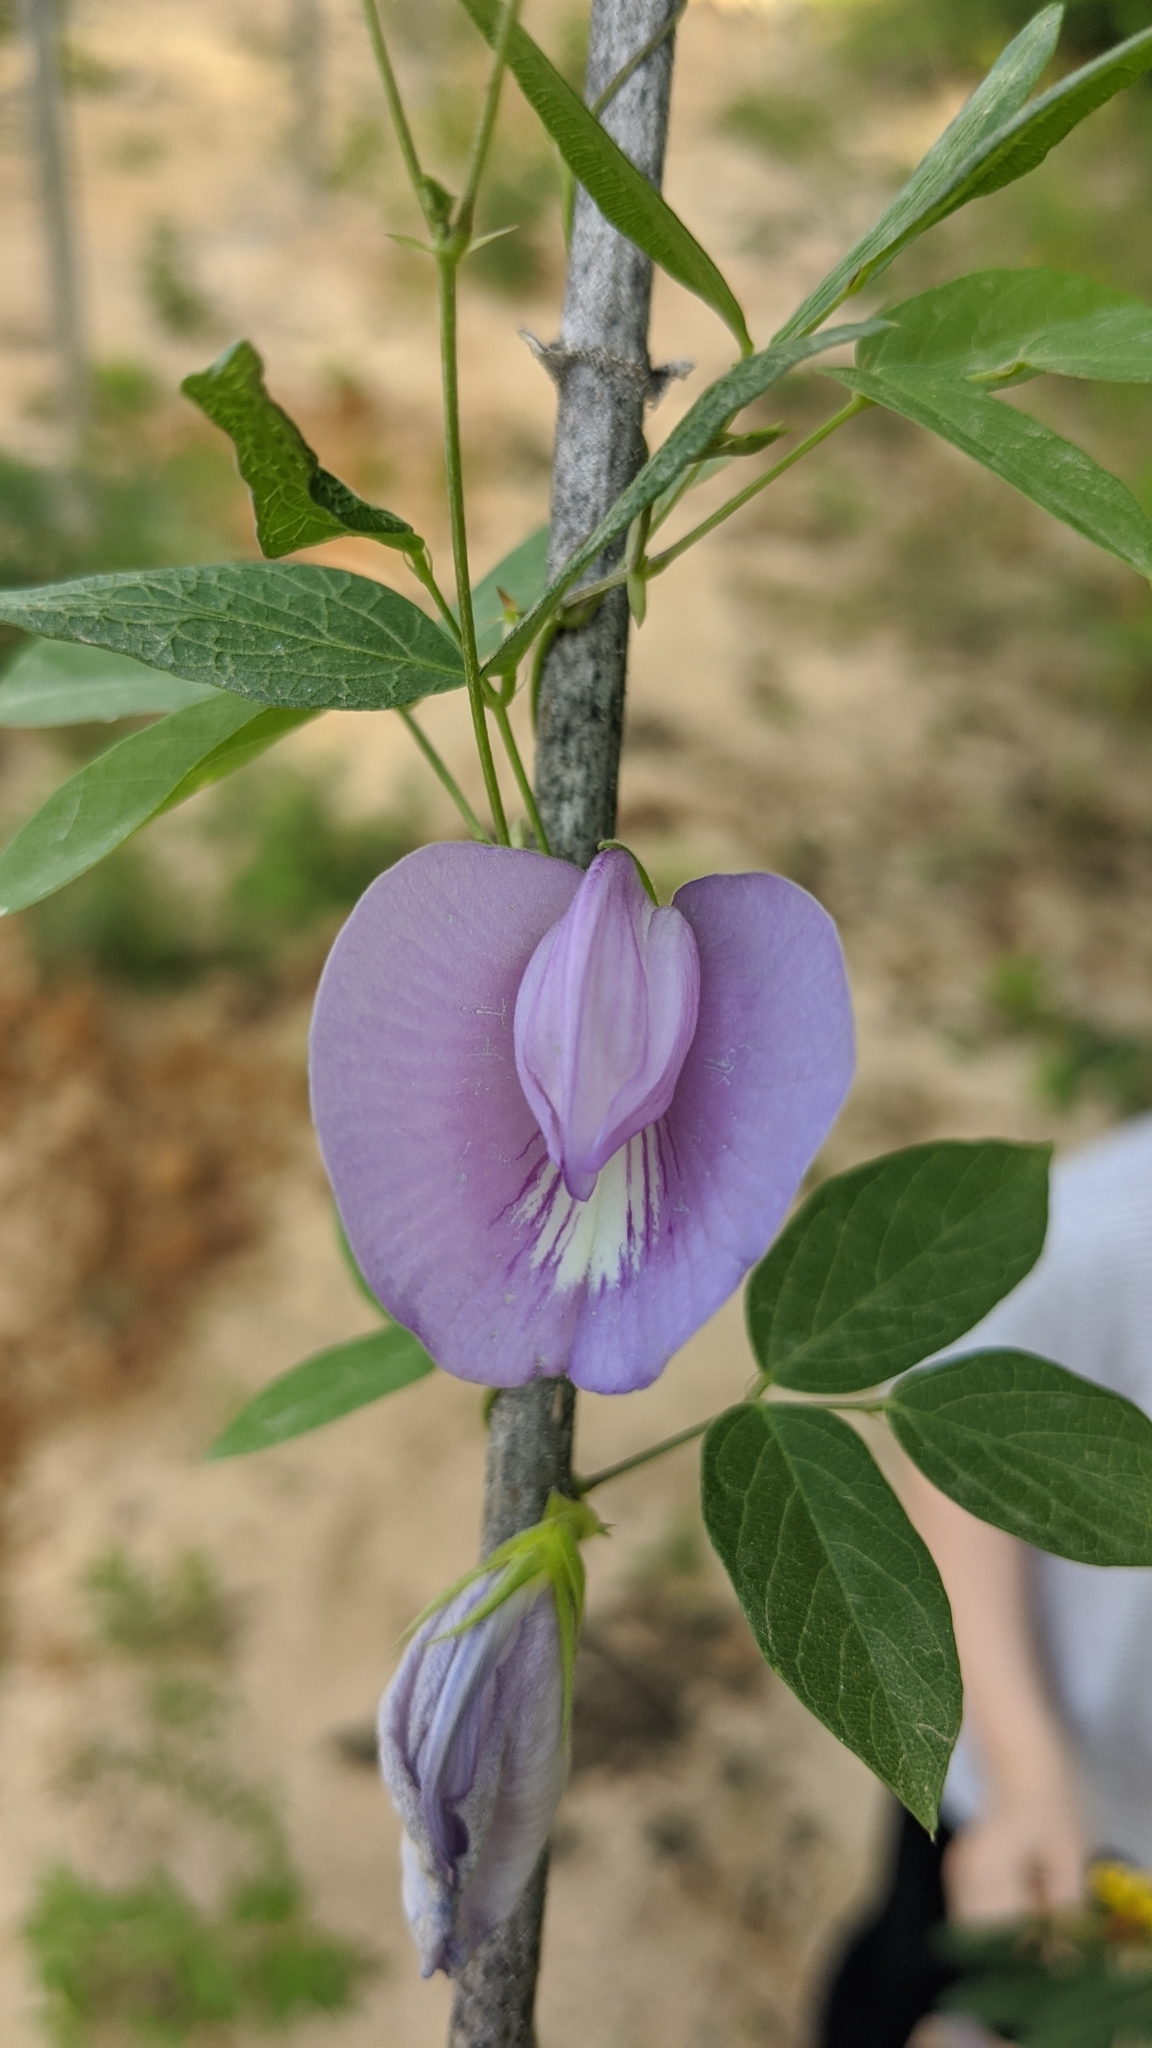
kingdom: Plantae
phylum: Tracheophyta
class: Magnoliopsida
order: Fabales
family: Fabaceae
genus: Centrosema
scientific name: Centrosema virginianum
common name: Butterfly-pea
